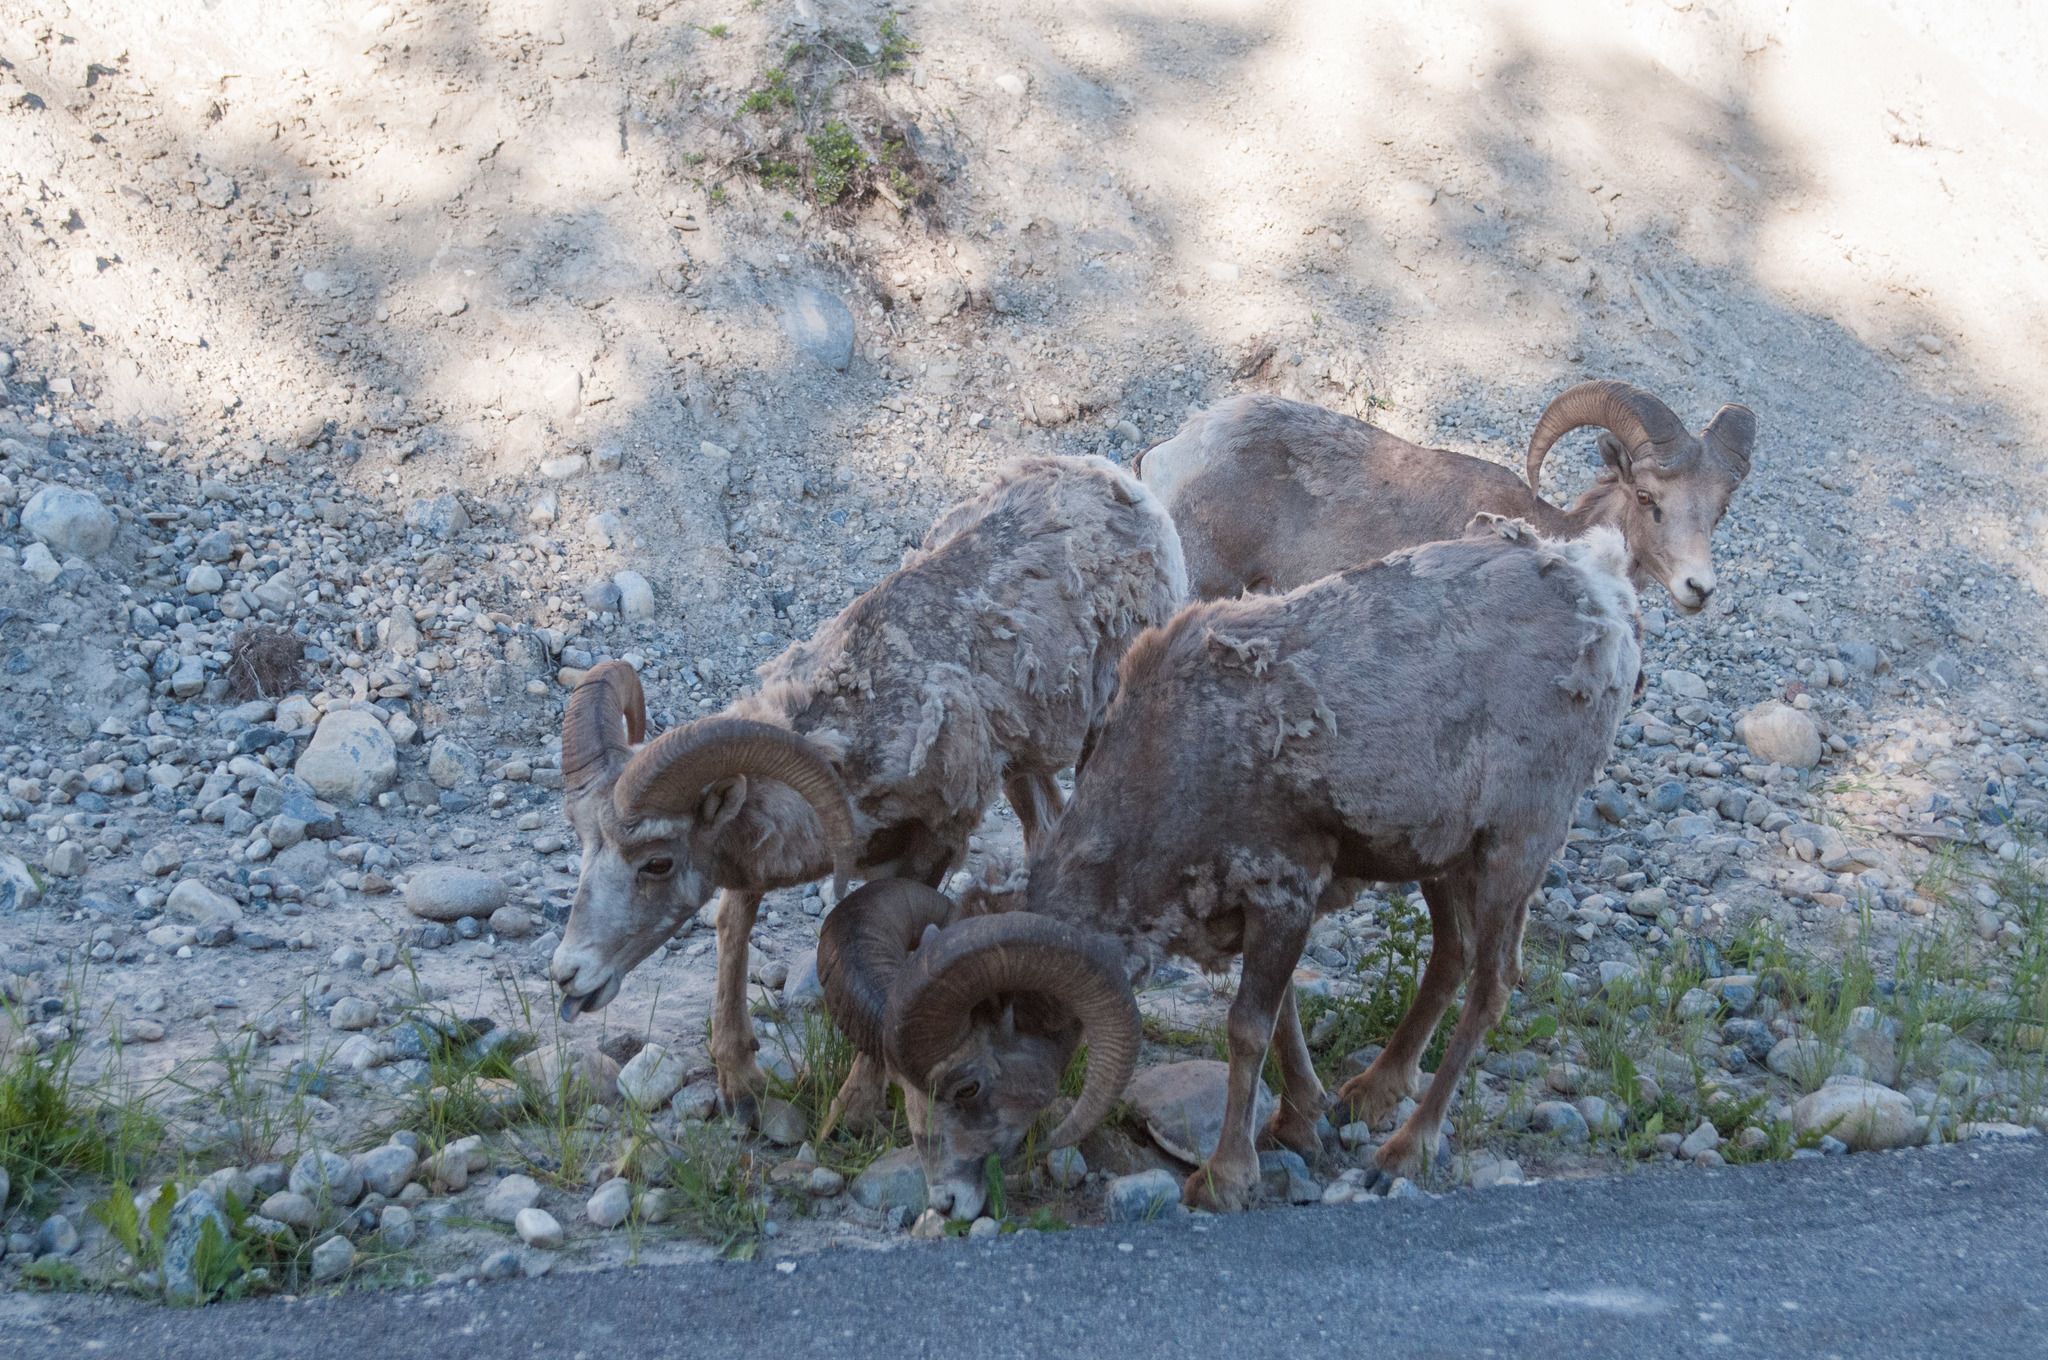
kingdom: Animalia
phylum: Chordata
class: Mammalia
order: Artiodactyla
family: Bovidae
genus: Ovis
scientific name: Ovis canadensis
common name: Bighorn sheep
